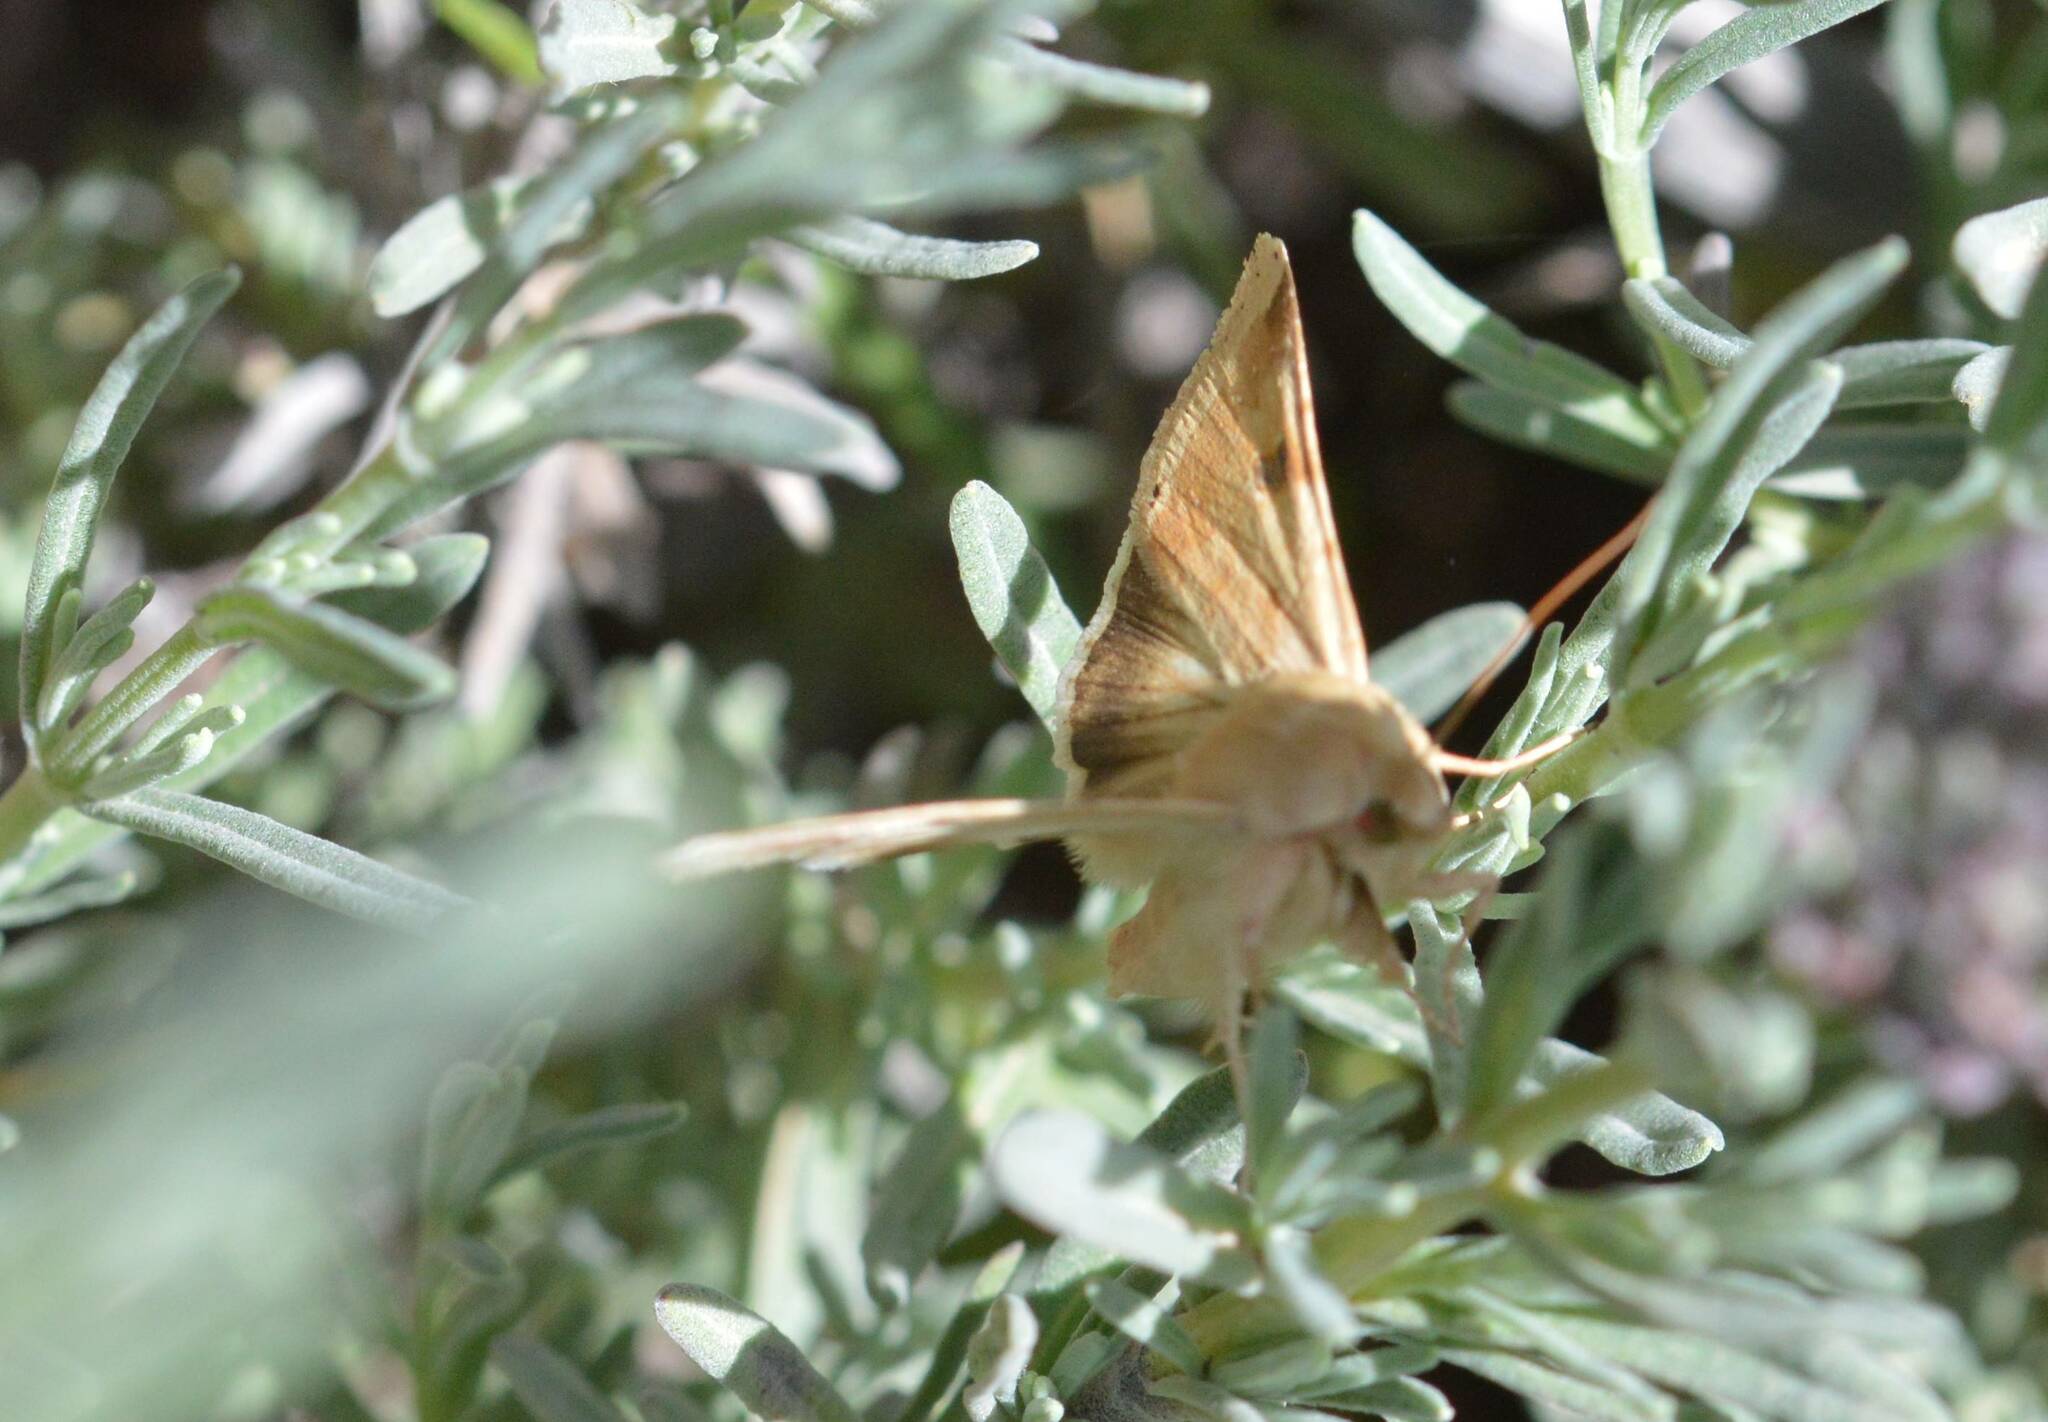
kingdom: Animalia
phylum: Arthropoda
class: Insecta
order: Lepidoptera
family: Noctuidae
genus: Heliothis
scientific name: Heliothis peltigera
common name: Bordered straw
